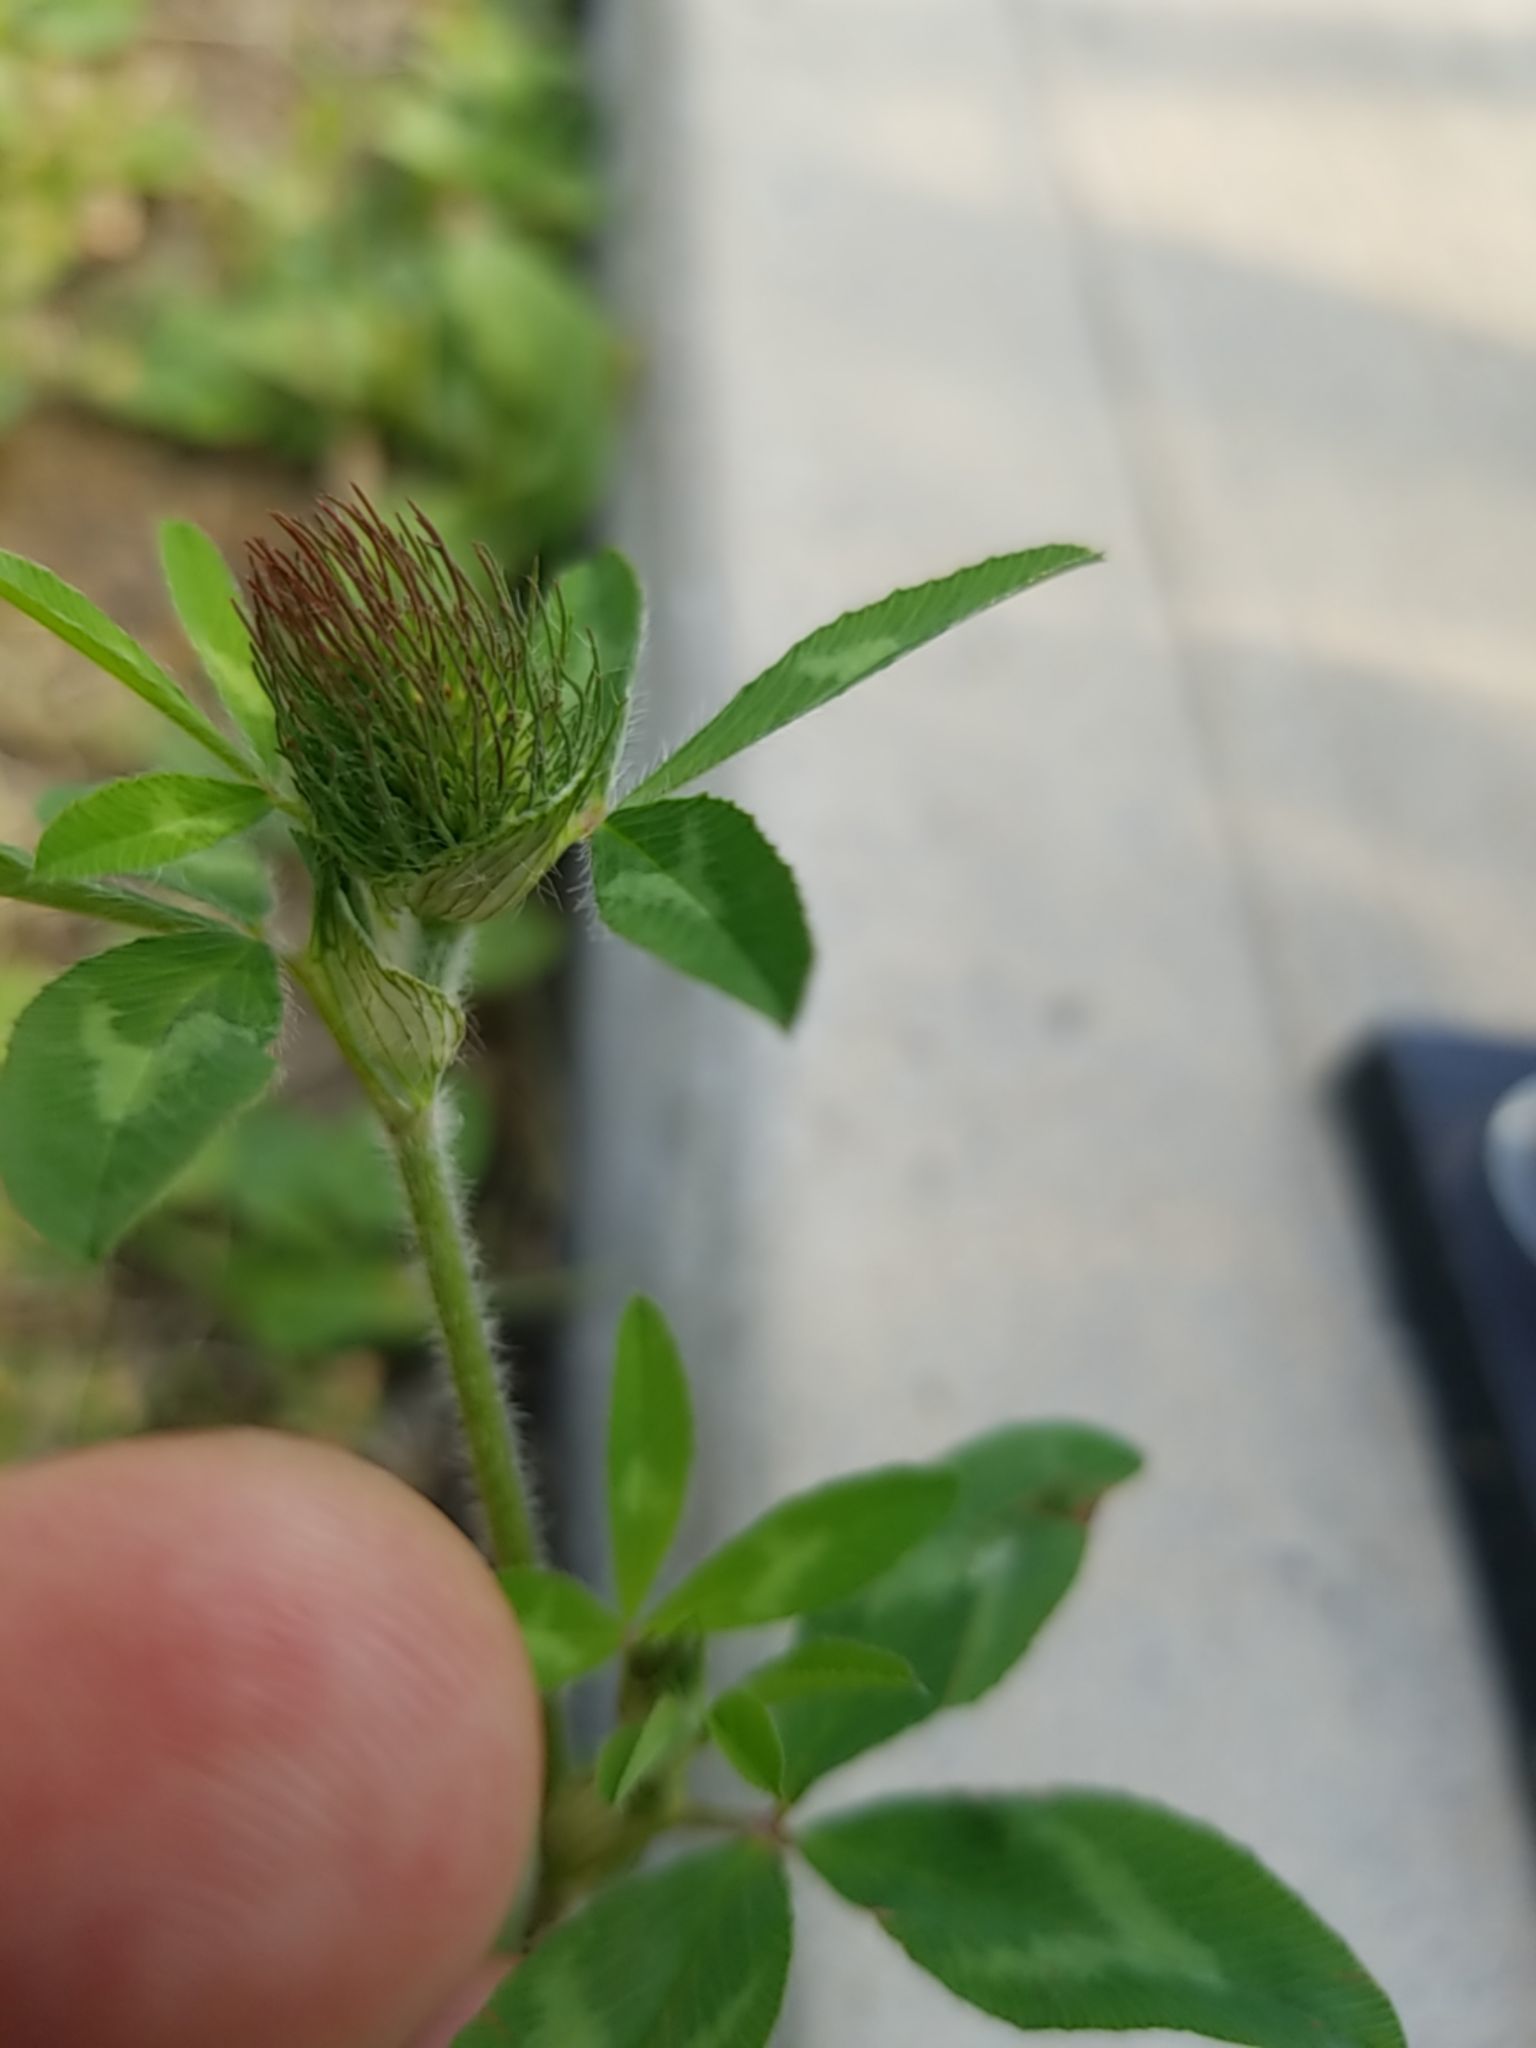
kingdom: Plantae
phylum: Tracheophyta
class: Magnoliopsida
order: Fabales
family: Fabaceae
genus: Trifolium
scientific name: Trifolium pratense
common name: Red clover
